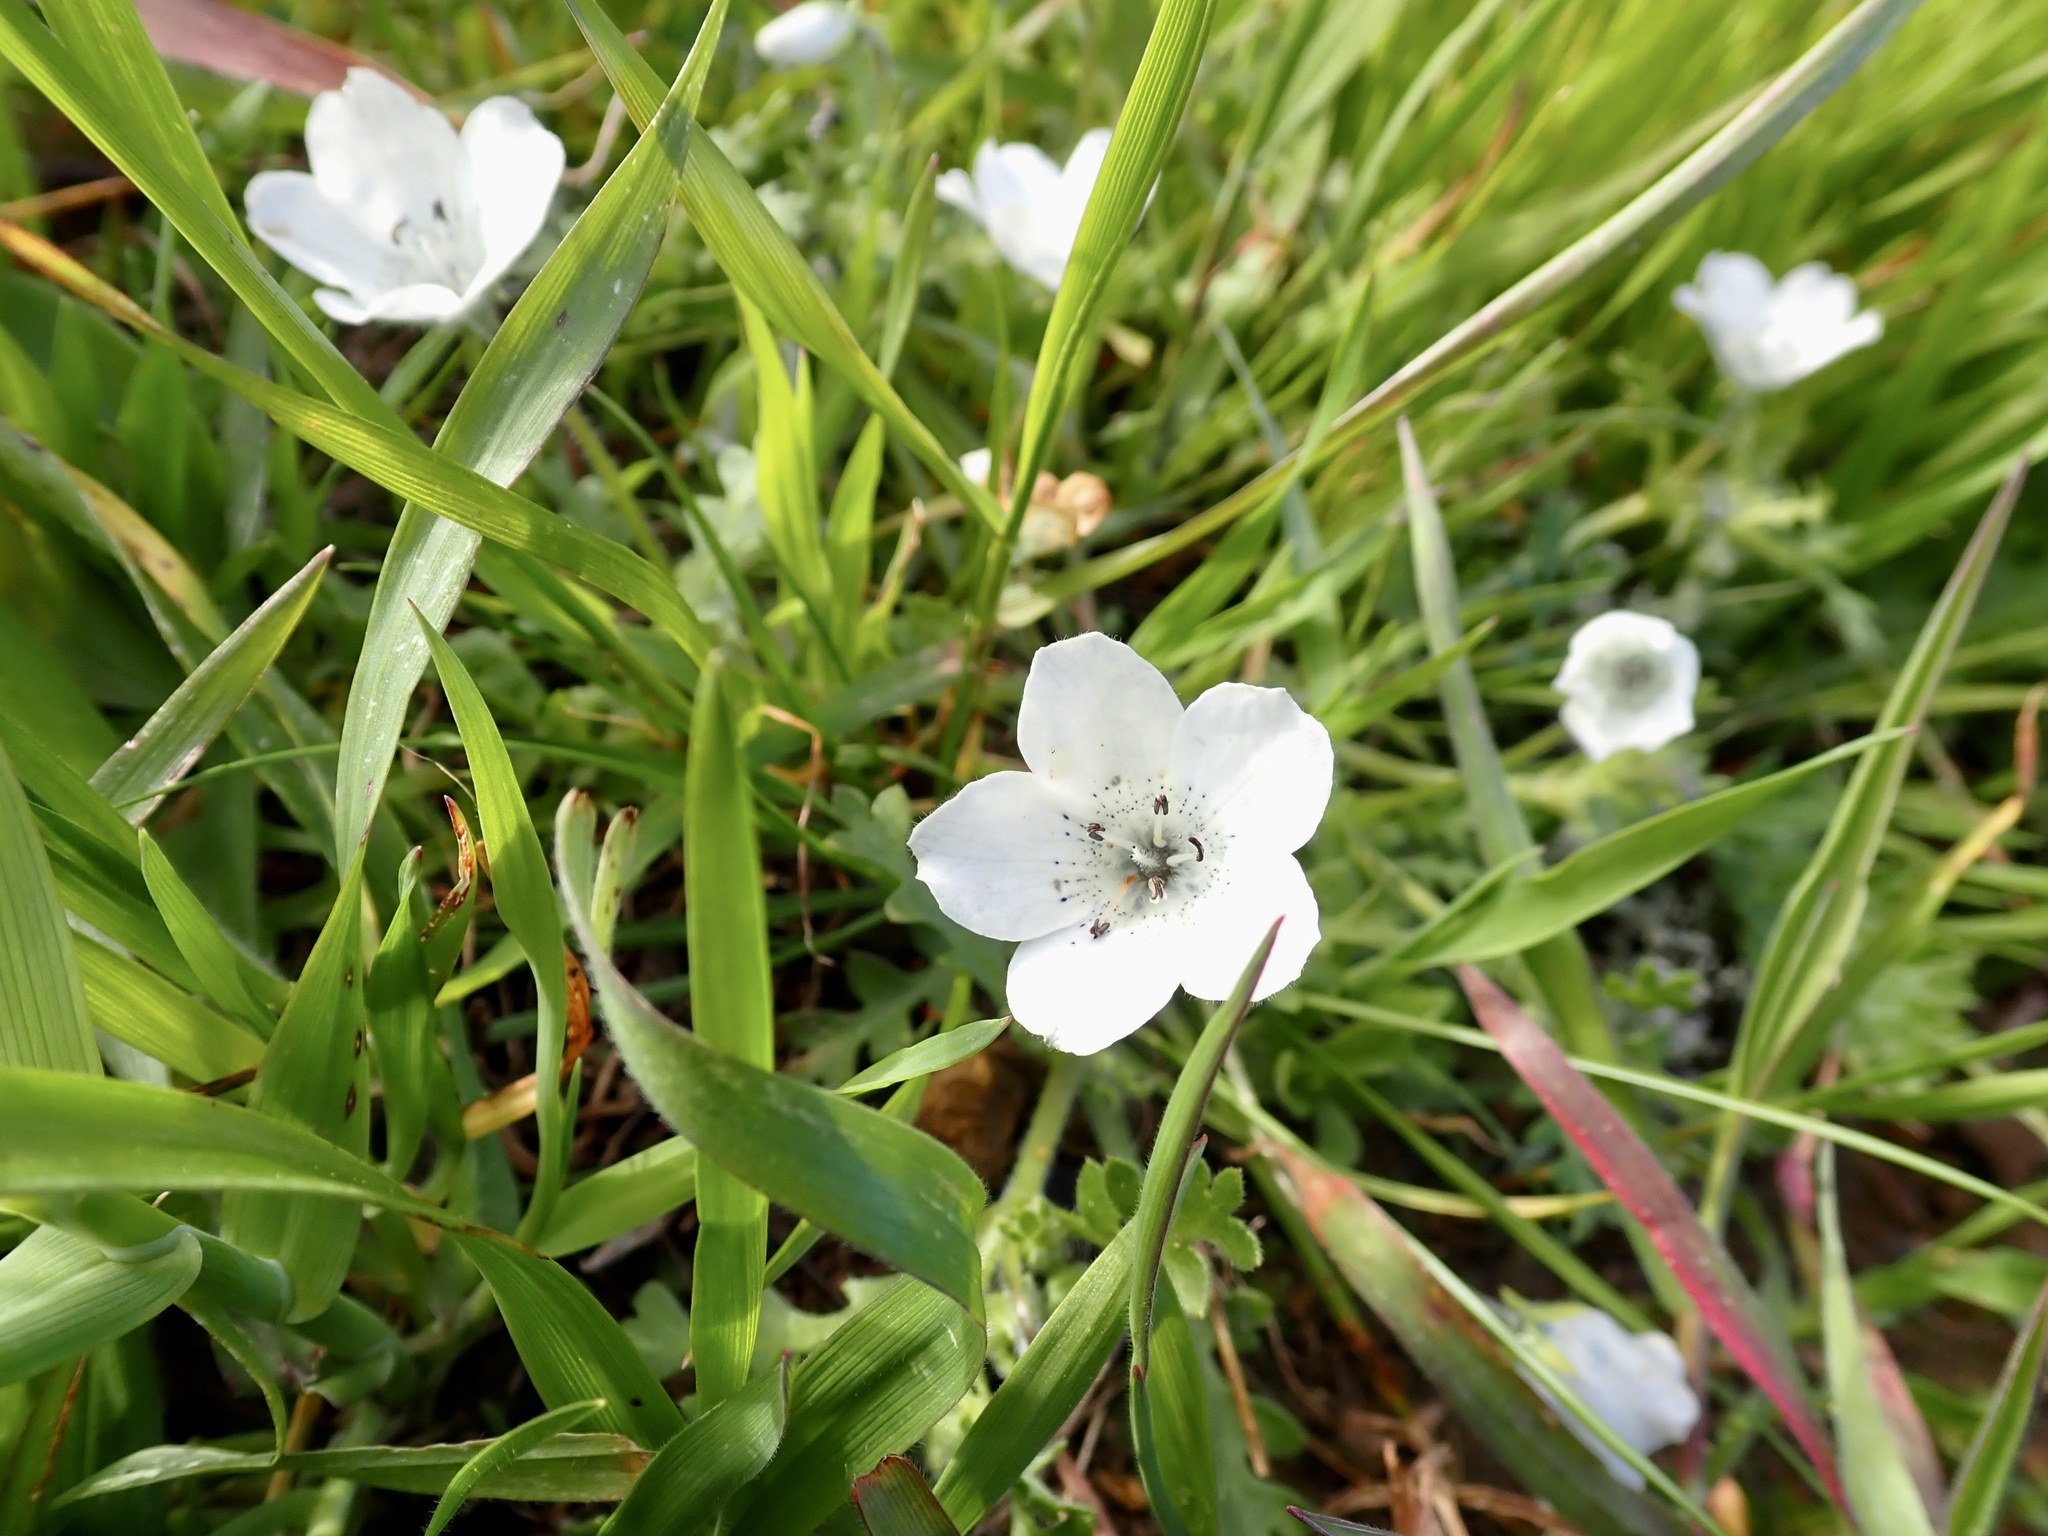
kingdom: Plantae
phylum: Tracheophyta
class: Magnoliopsida
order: Boraginales
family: Hydrophyllaceae
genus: Nemophila
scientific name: Nemophila menziesii
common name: Baby's-blue-eyes
